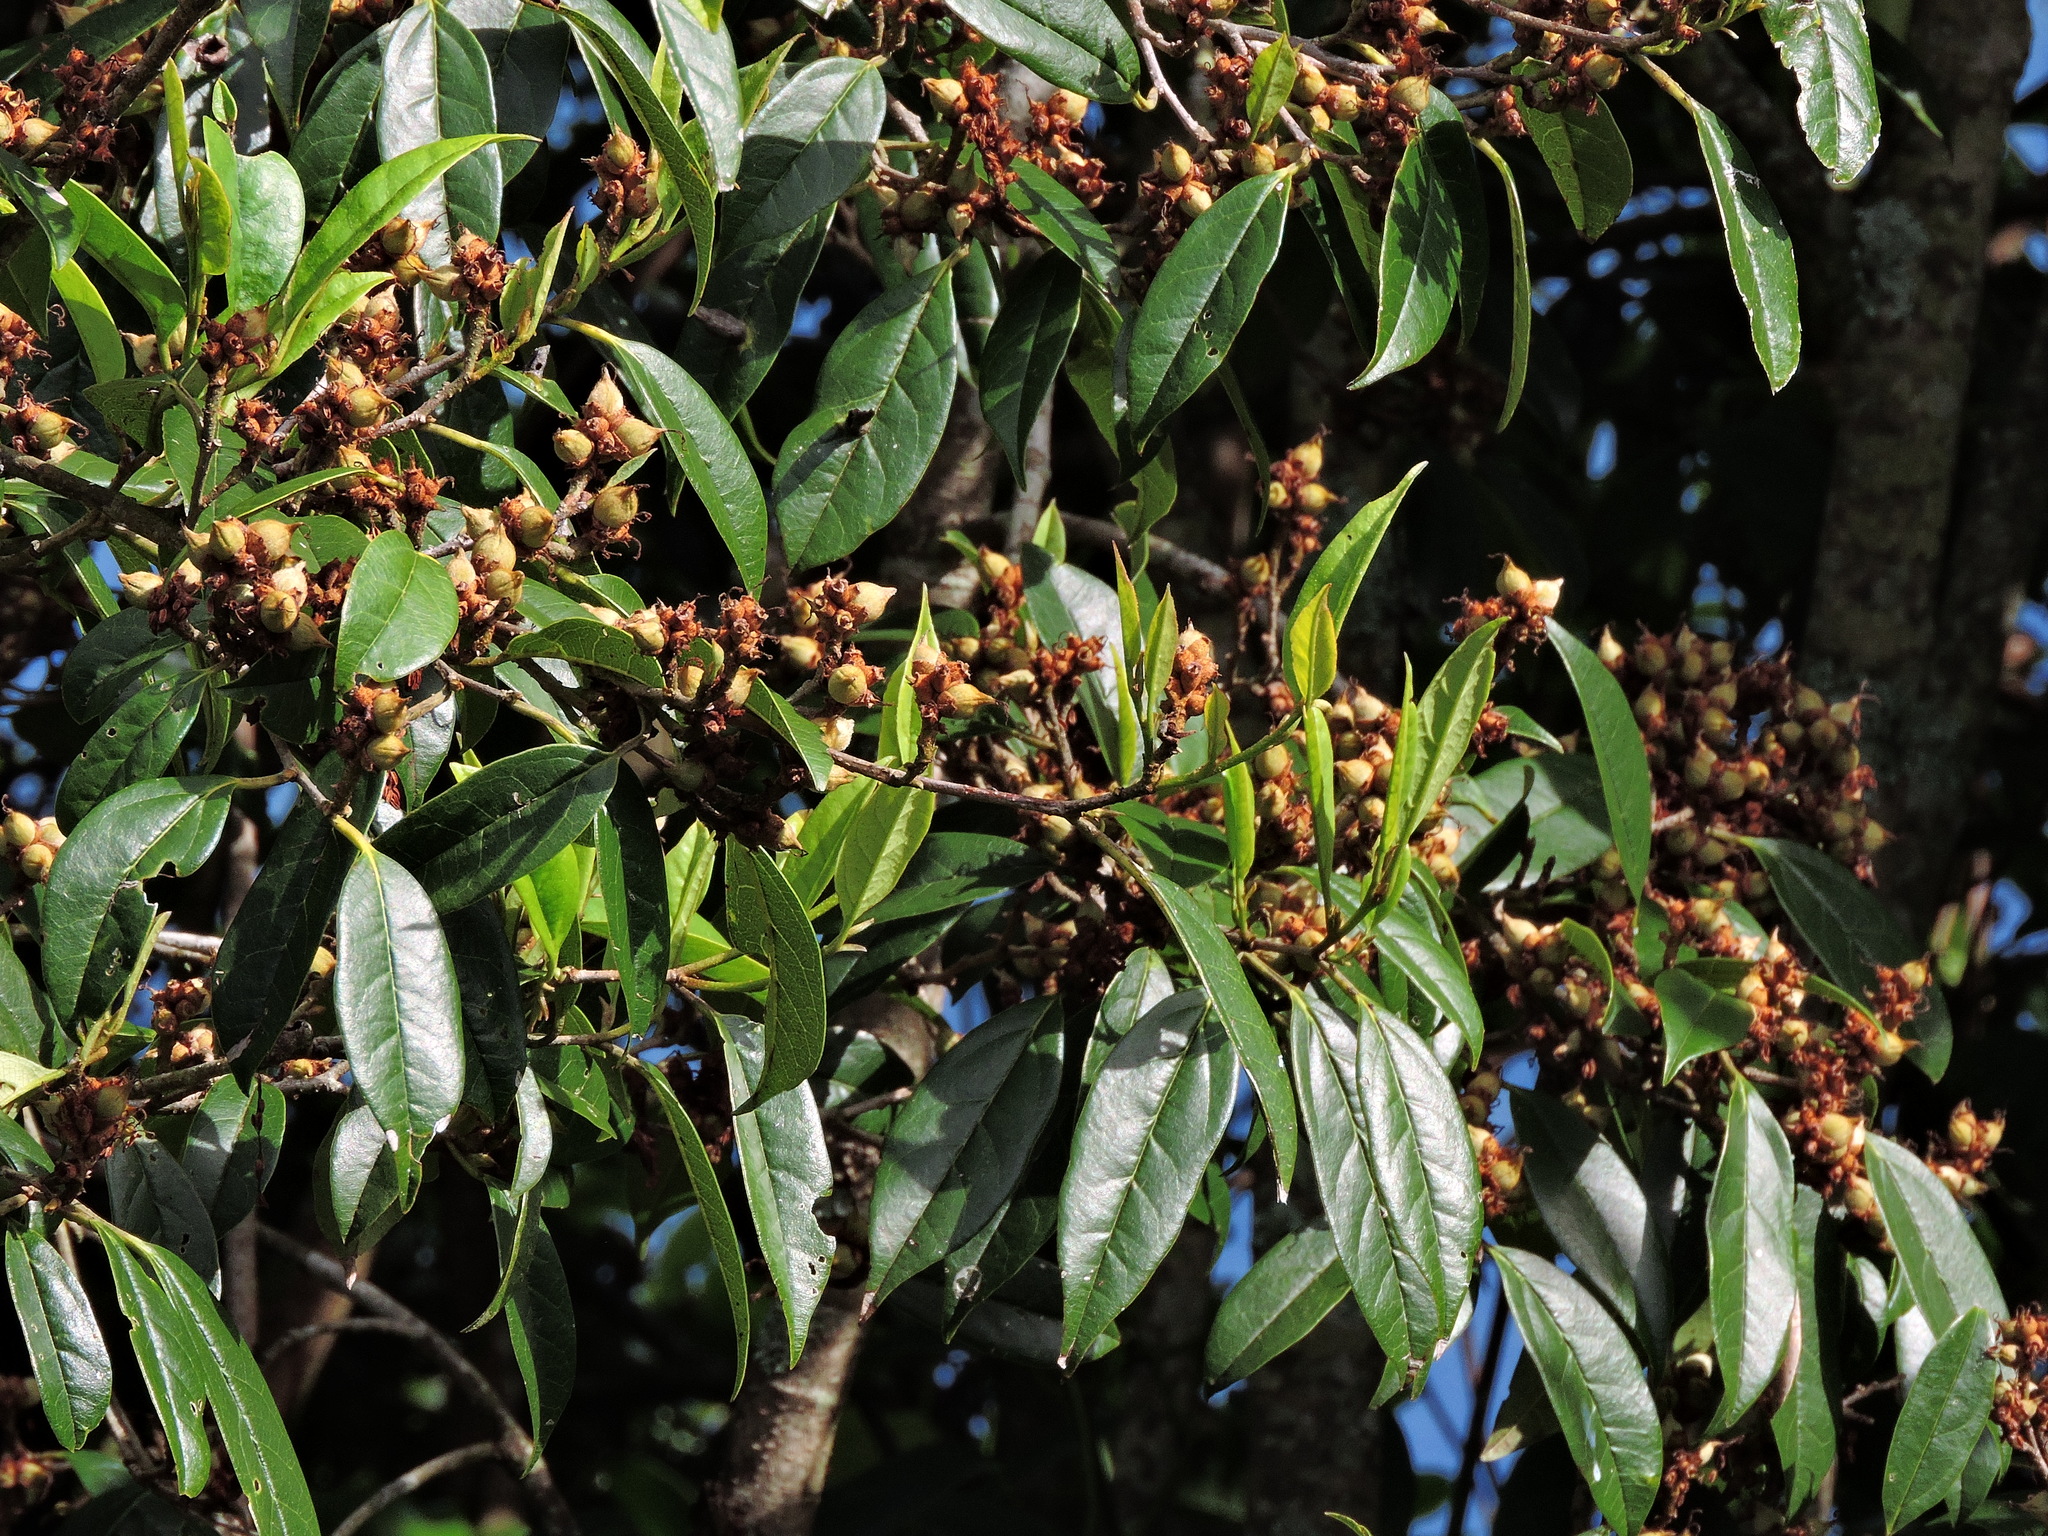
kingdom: Plantae
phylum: Tracheophyta
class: Magnoliopsida
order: Saxifragales
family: Hamamelidaceae
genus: Sycopsis
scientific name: Sycopsis sinensis
